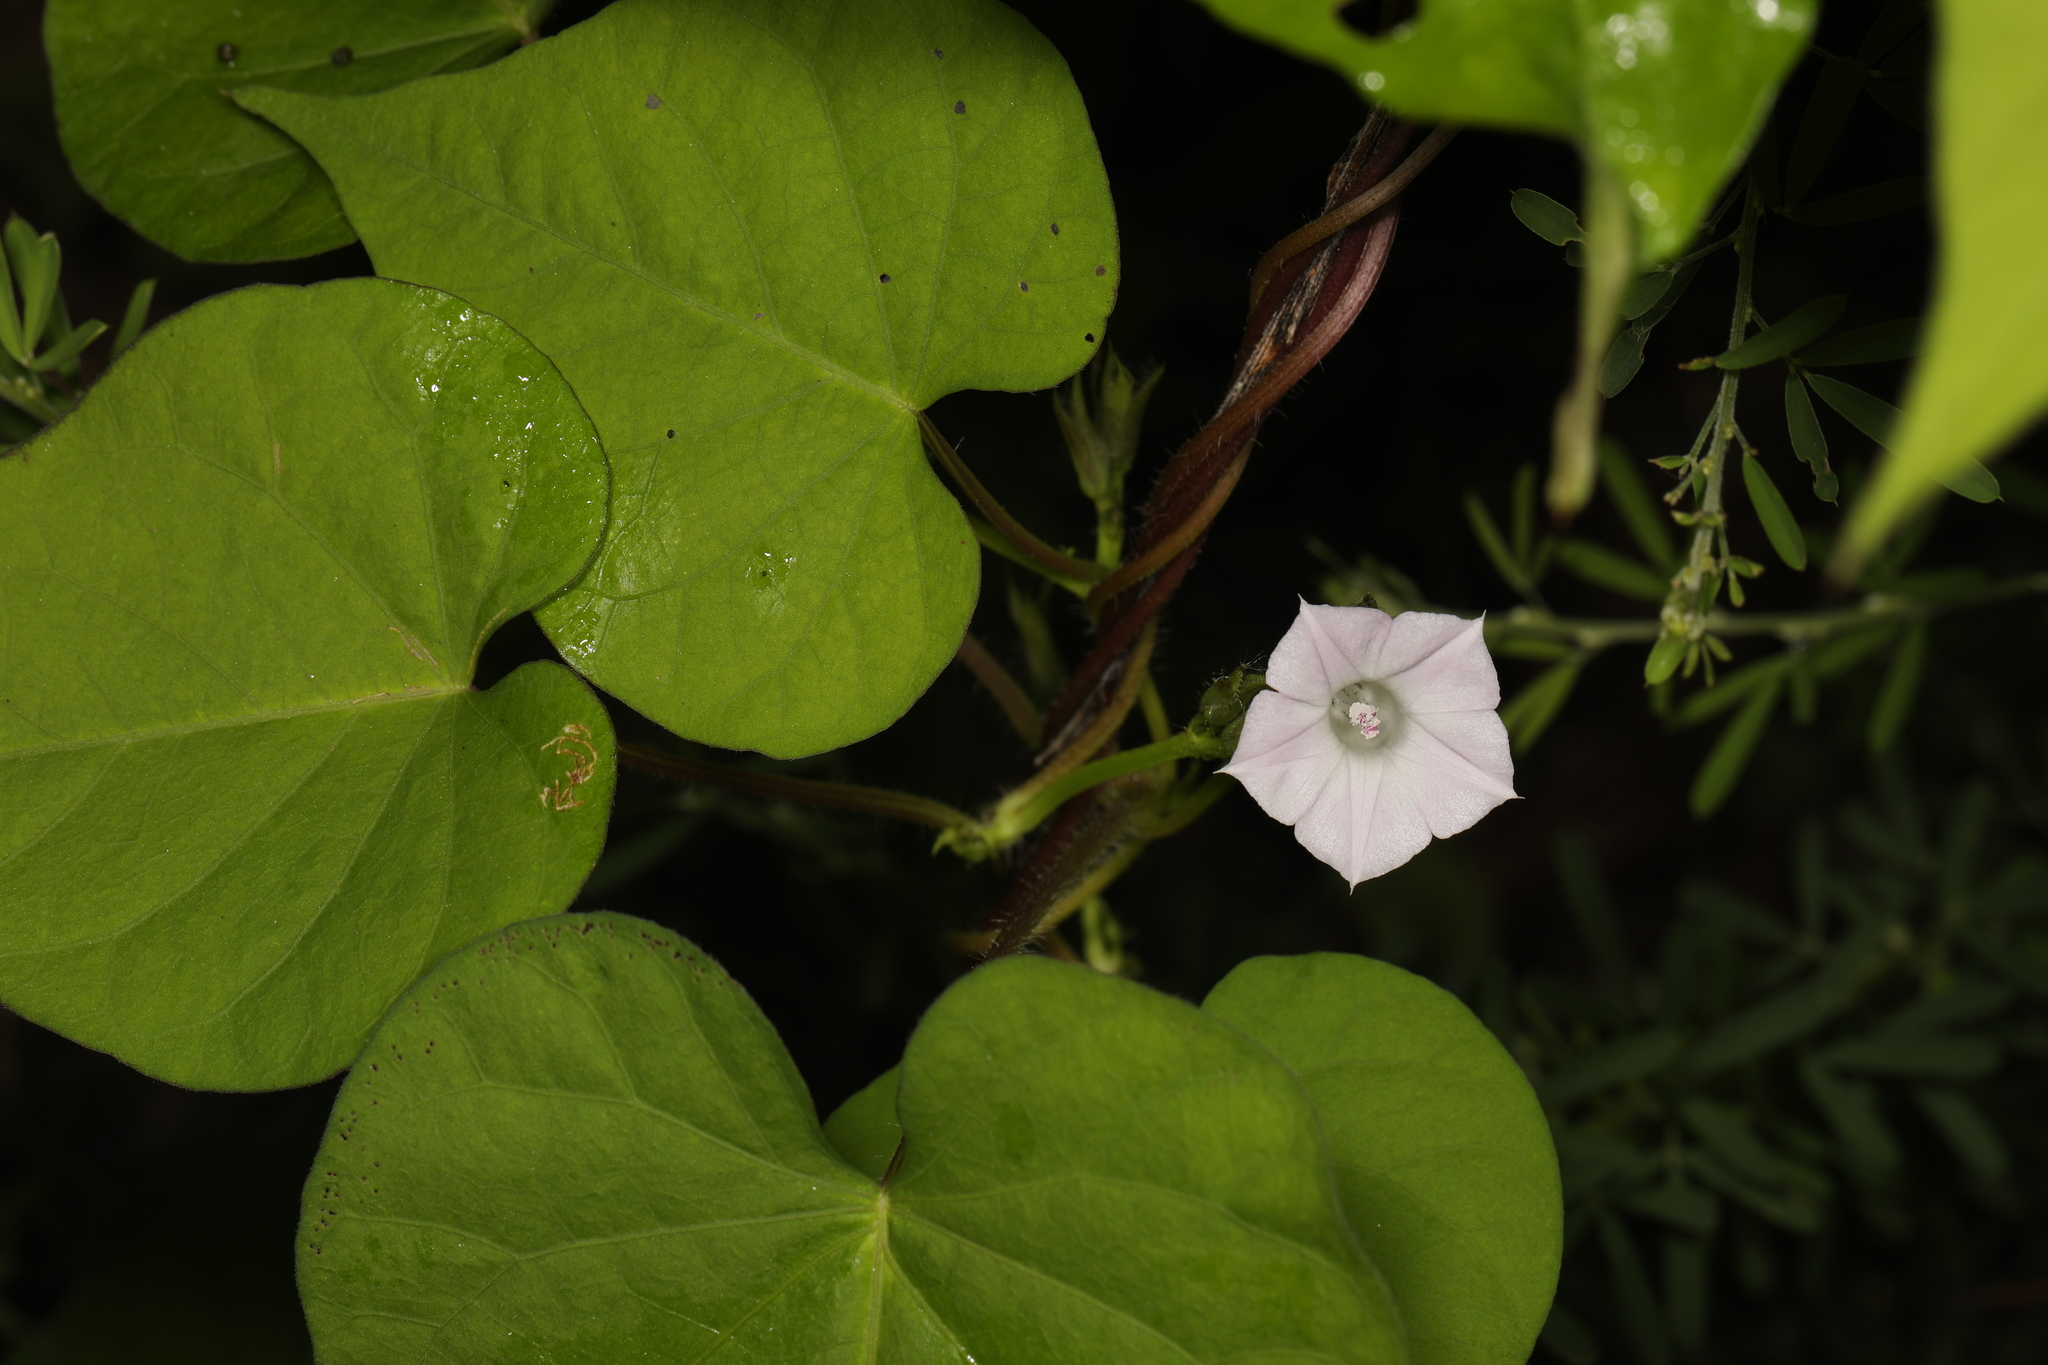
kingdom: Plantae
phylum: Tracheophyta
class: Magnoliopsida
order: Solanales
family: Convolvulaceae
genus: Ipomoea
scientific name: Ipomoea lacunosa
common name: White morning-glory
